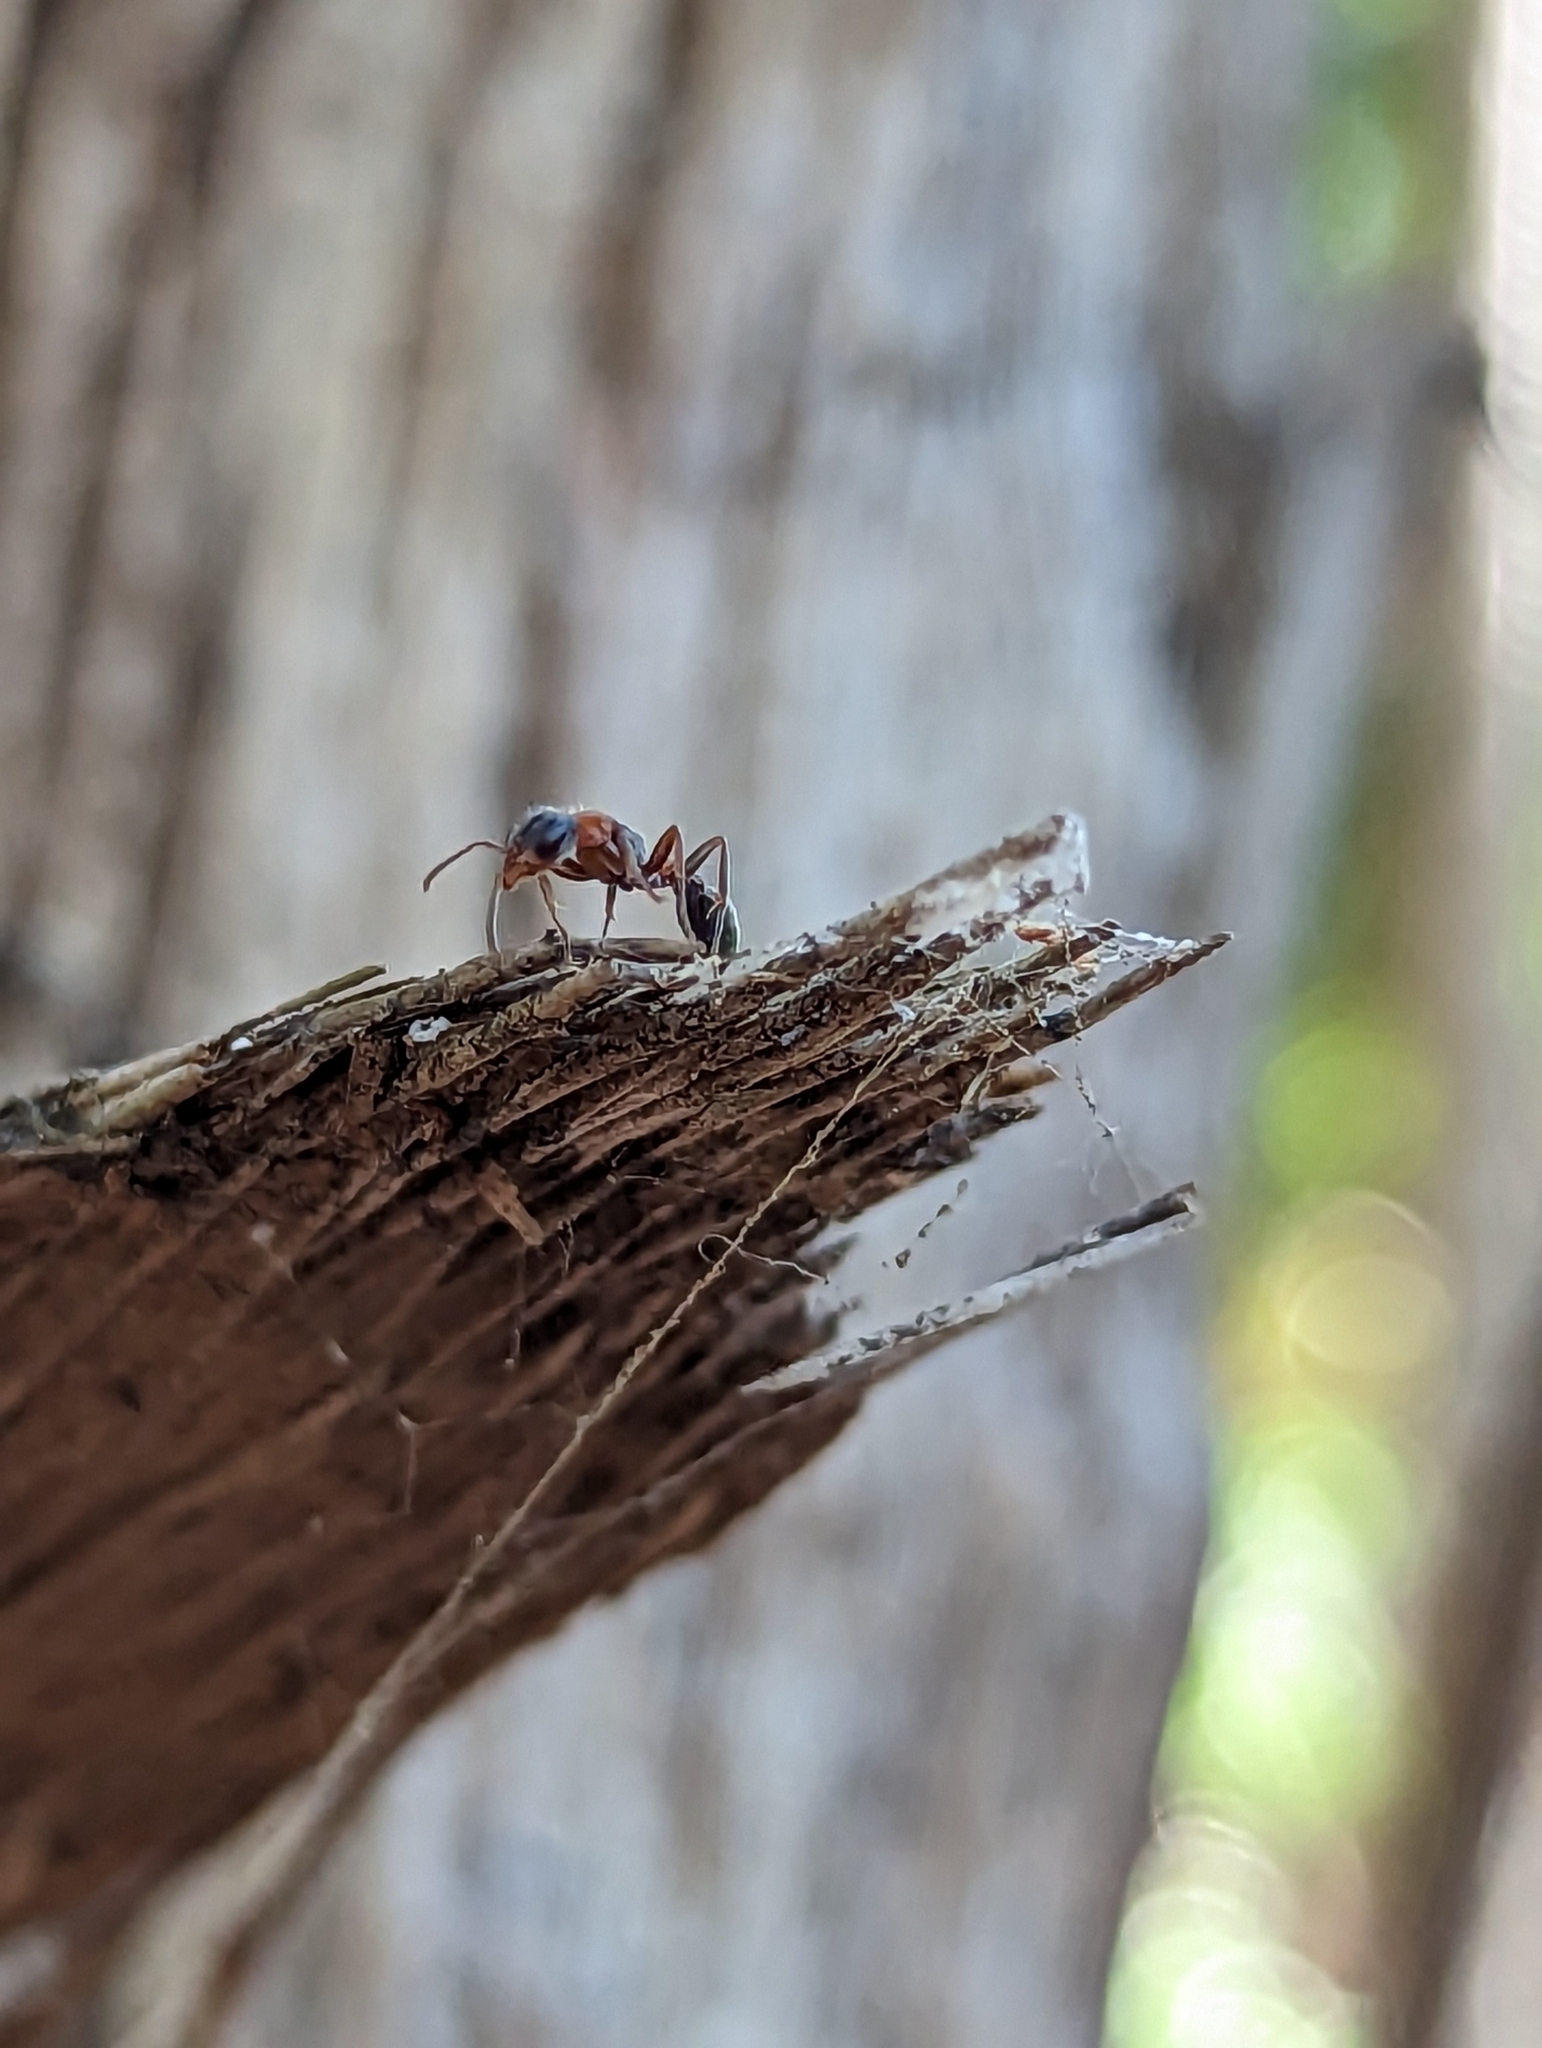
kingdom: Animalia
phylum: Arthropoda
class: Insecta
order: Hymenoptera
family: Formicidae
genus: Pseudomyrmex
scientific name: Pseudomyrmex gracilis
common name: Graceful twig ant
